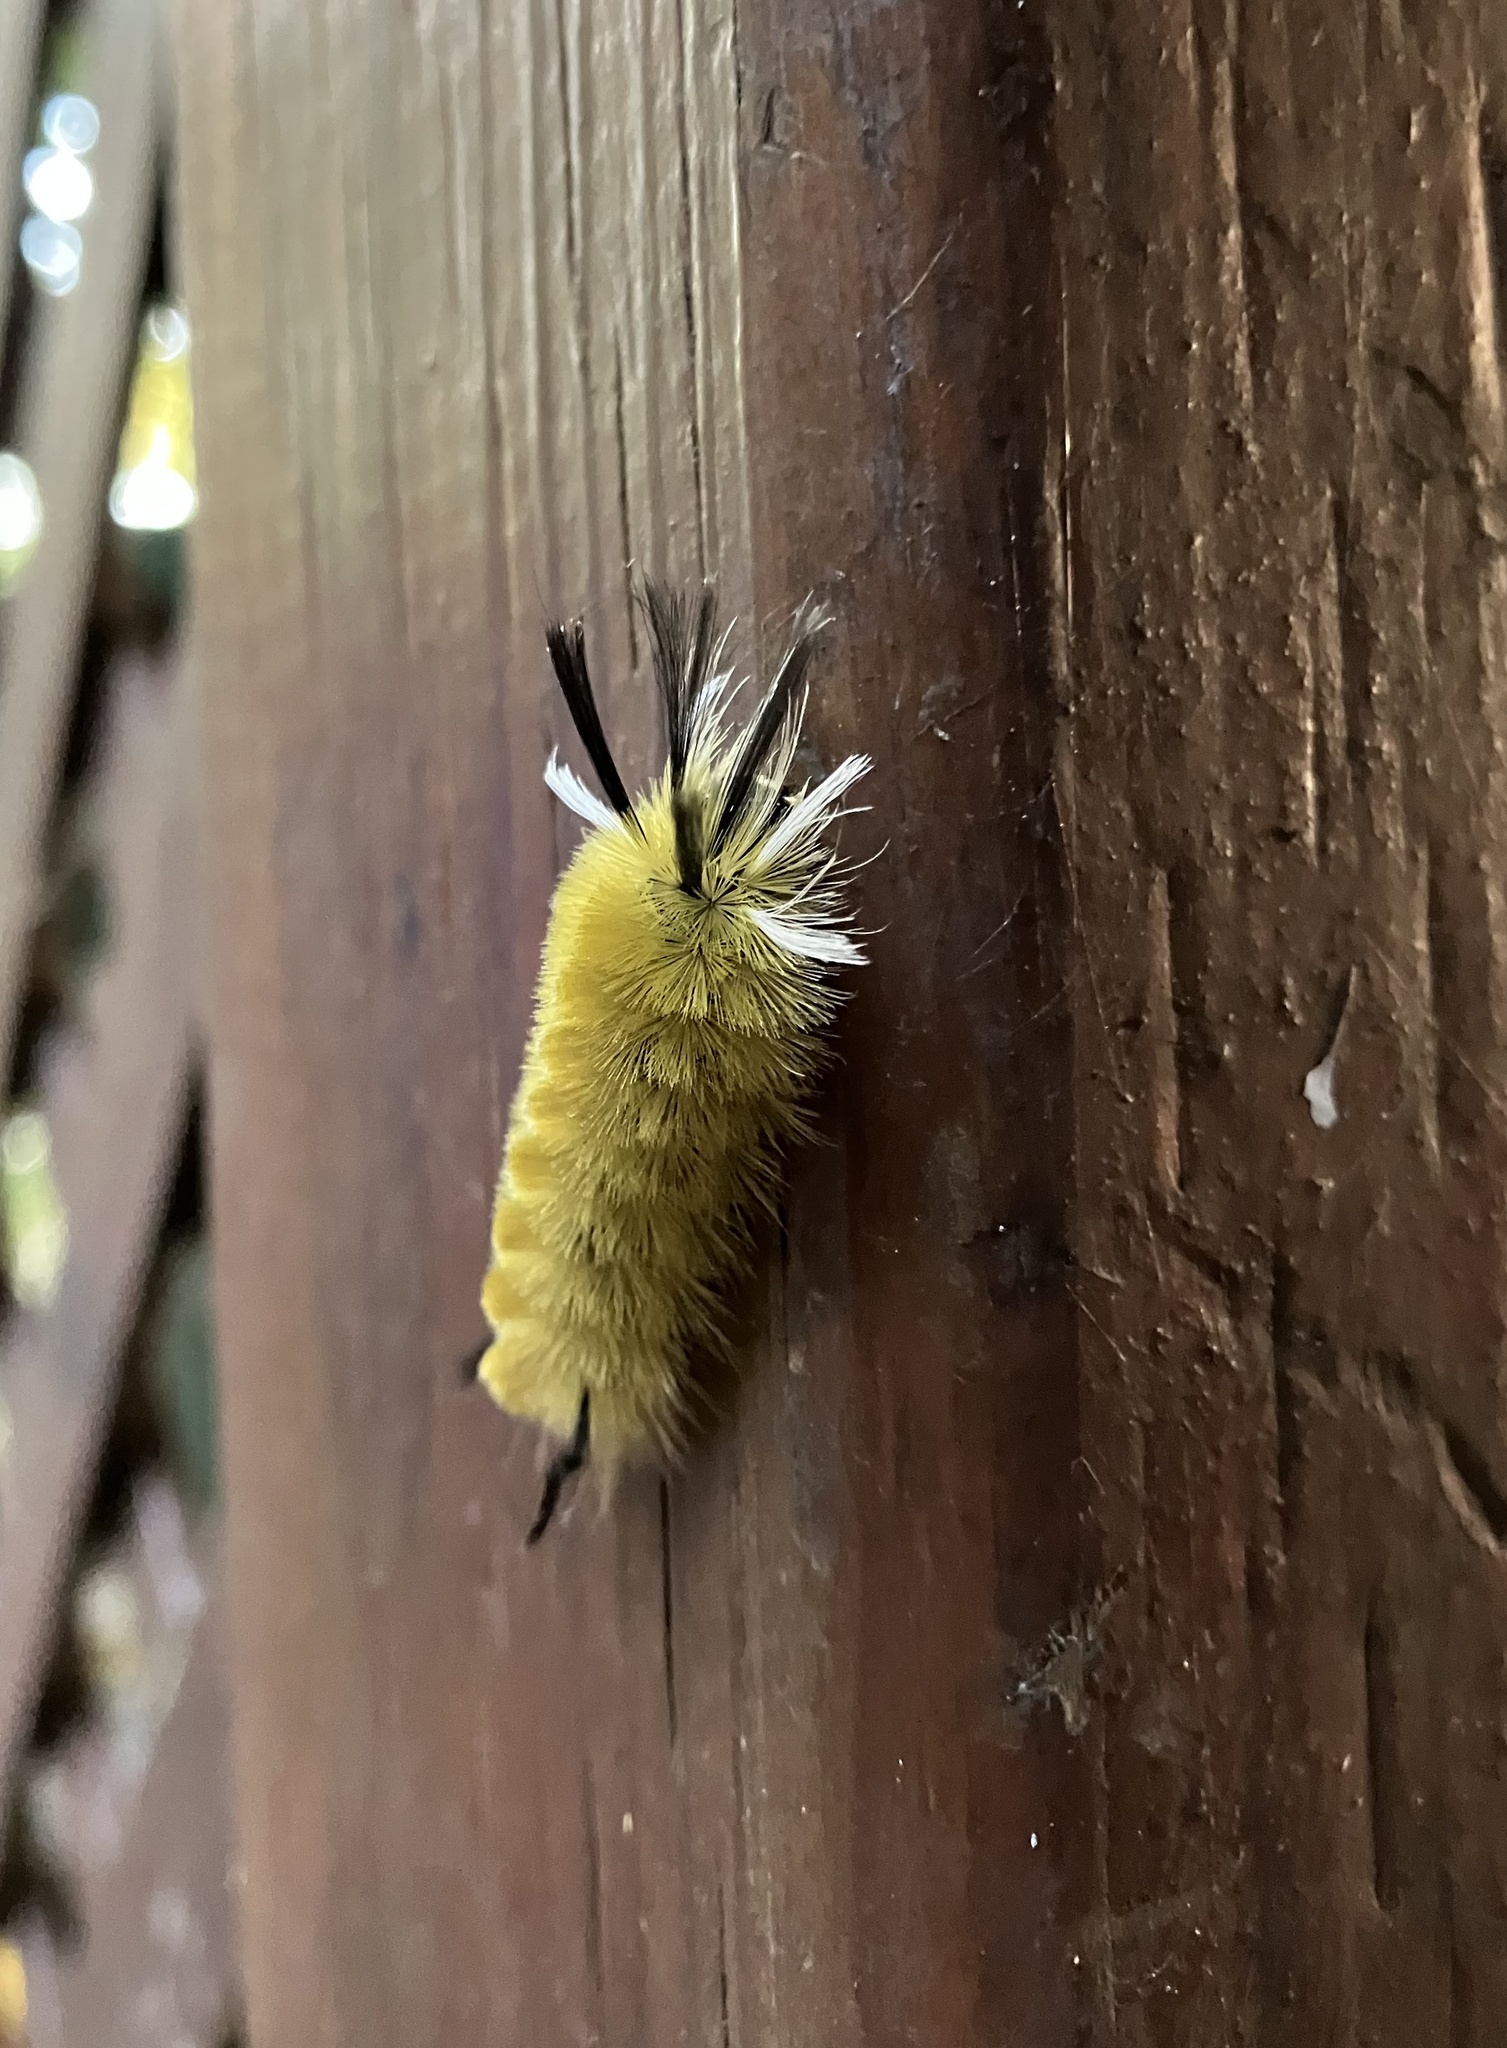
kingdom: Animalia
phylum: Arthropoda
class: Insecta
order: Lepidoptera
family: Erebidae
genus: Halysidota
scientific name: Halysidota tessellaris
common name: Banded tussock moth
